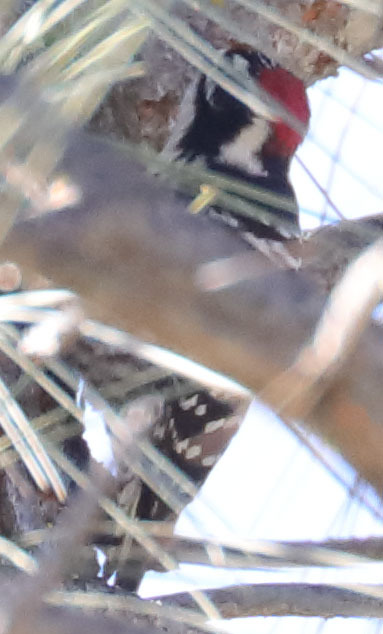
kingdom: Animalia
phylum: Chordata
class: Aves
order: Piciformes
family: Picidae
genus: Dryobates
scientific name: Dryobates nuttallii
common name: Nuttall's woodpecker
